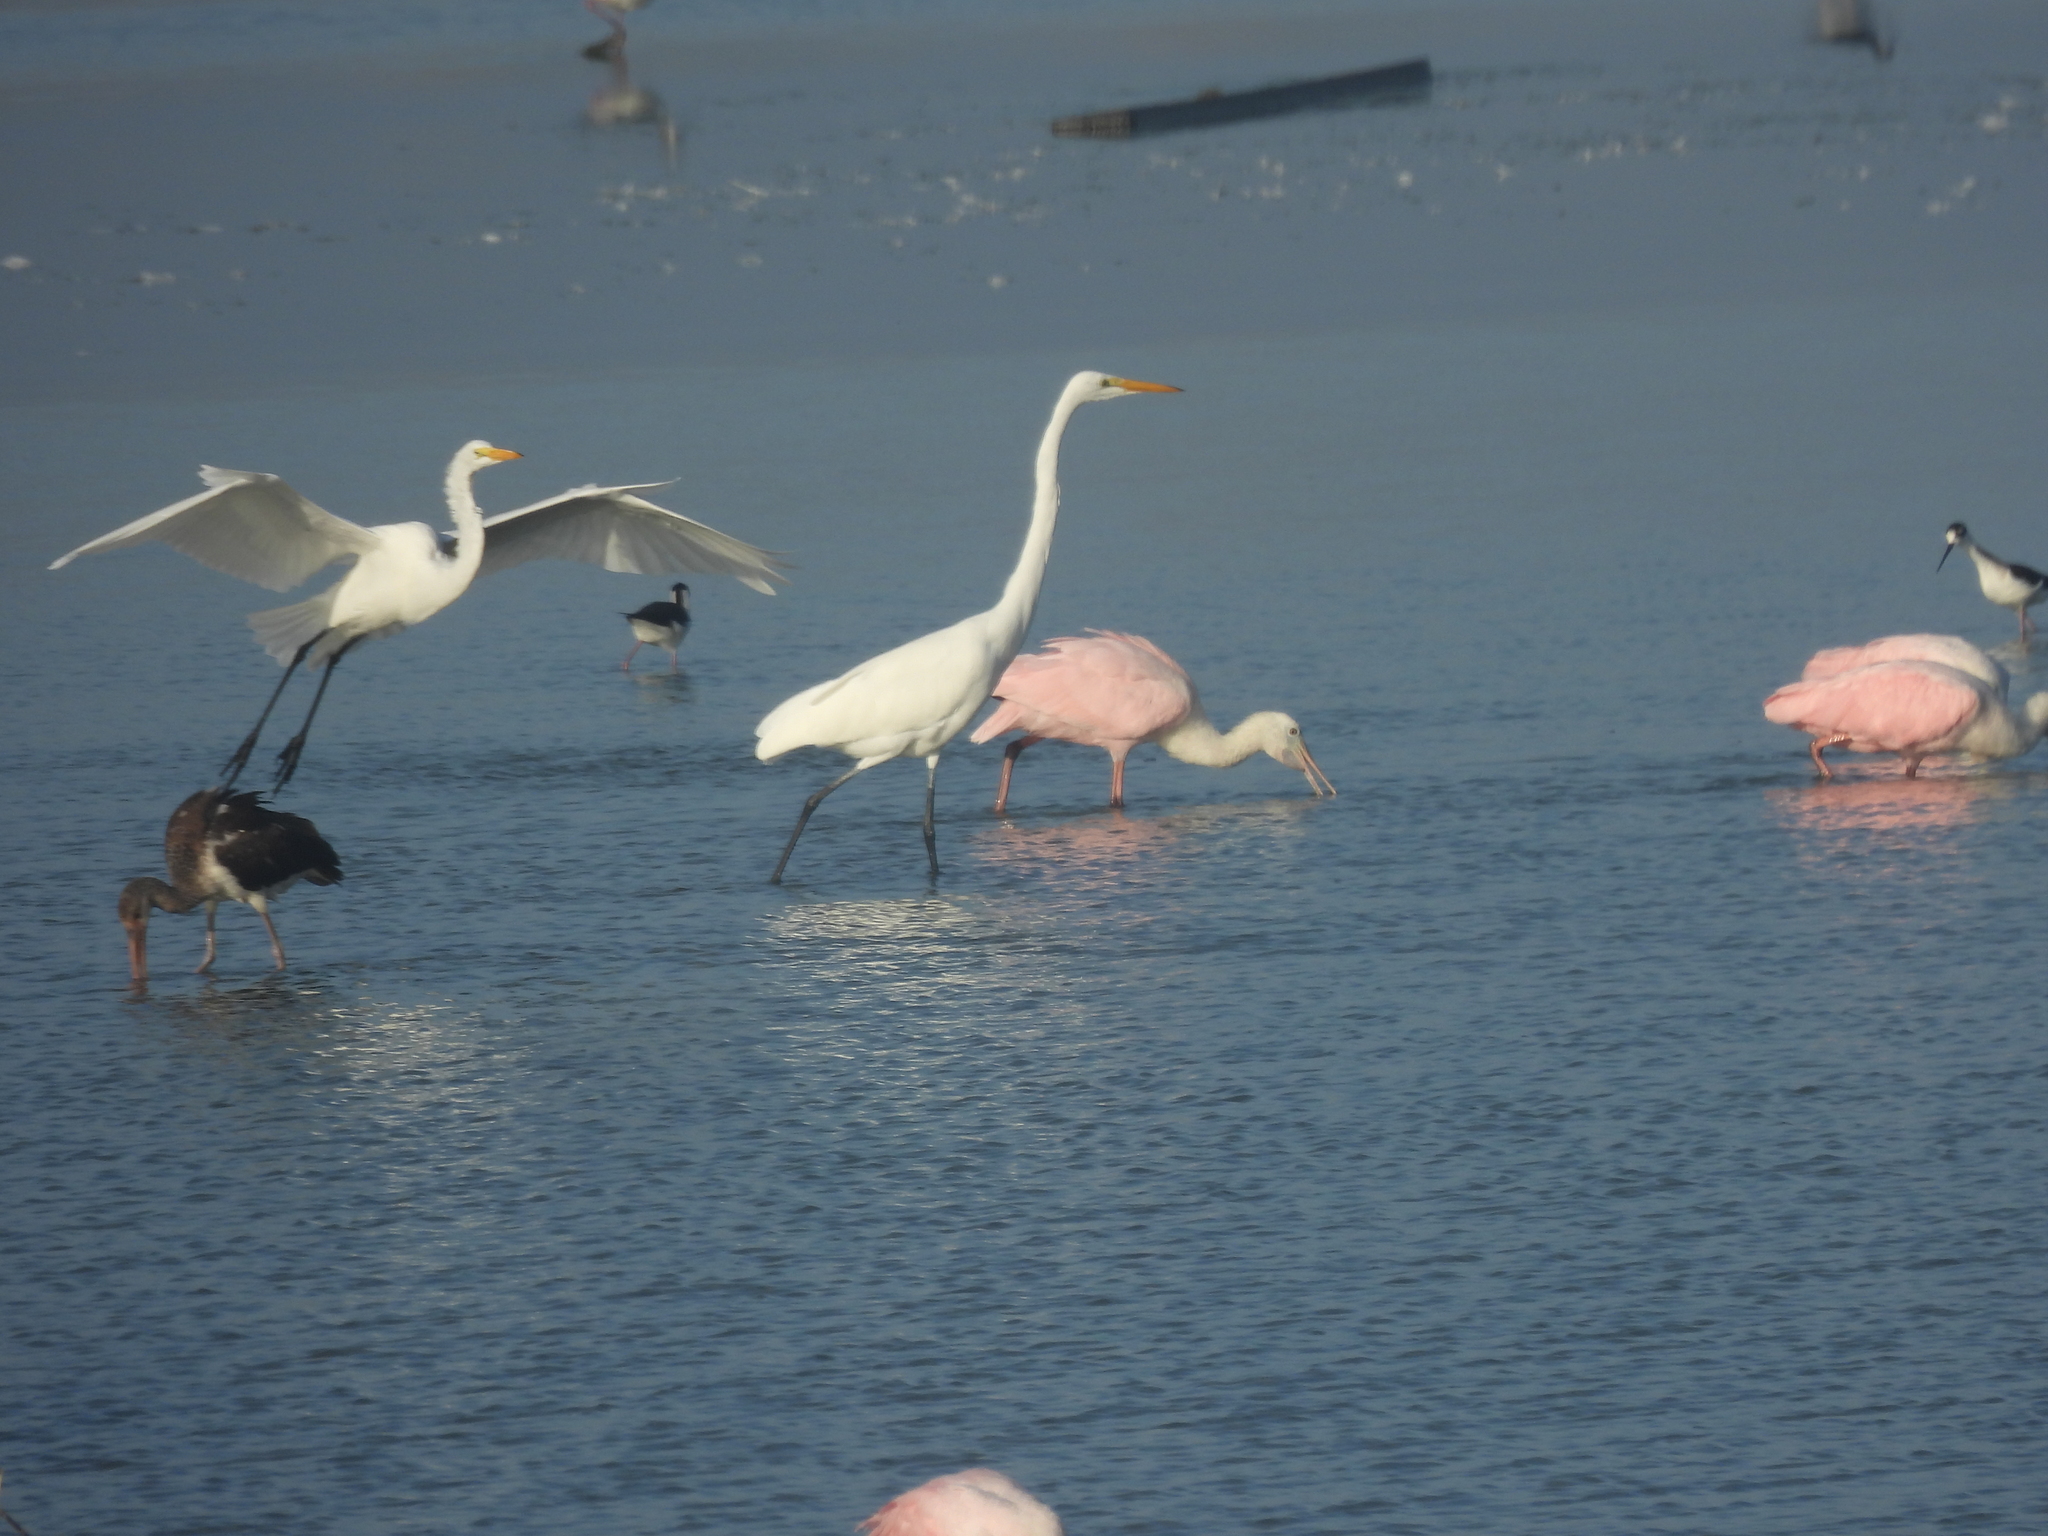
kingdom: Animalia
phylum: Chordata
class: Aves
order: Pelecaniformes
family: Ardeidae
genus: Ardea
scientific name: Ardea alba
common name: Great egret
